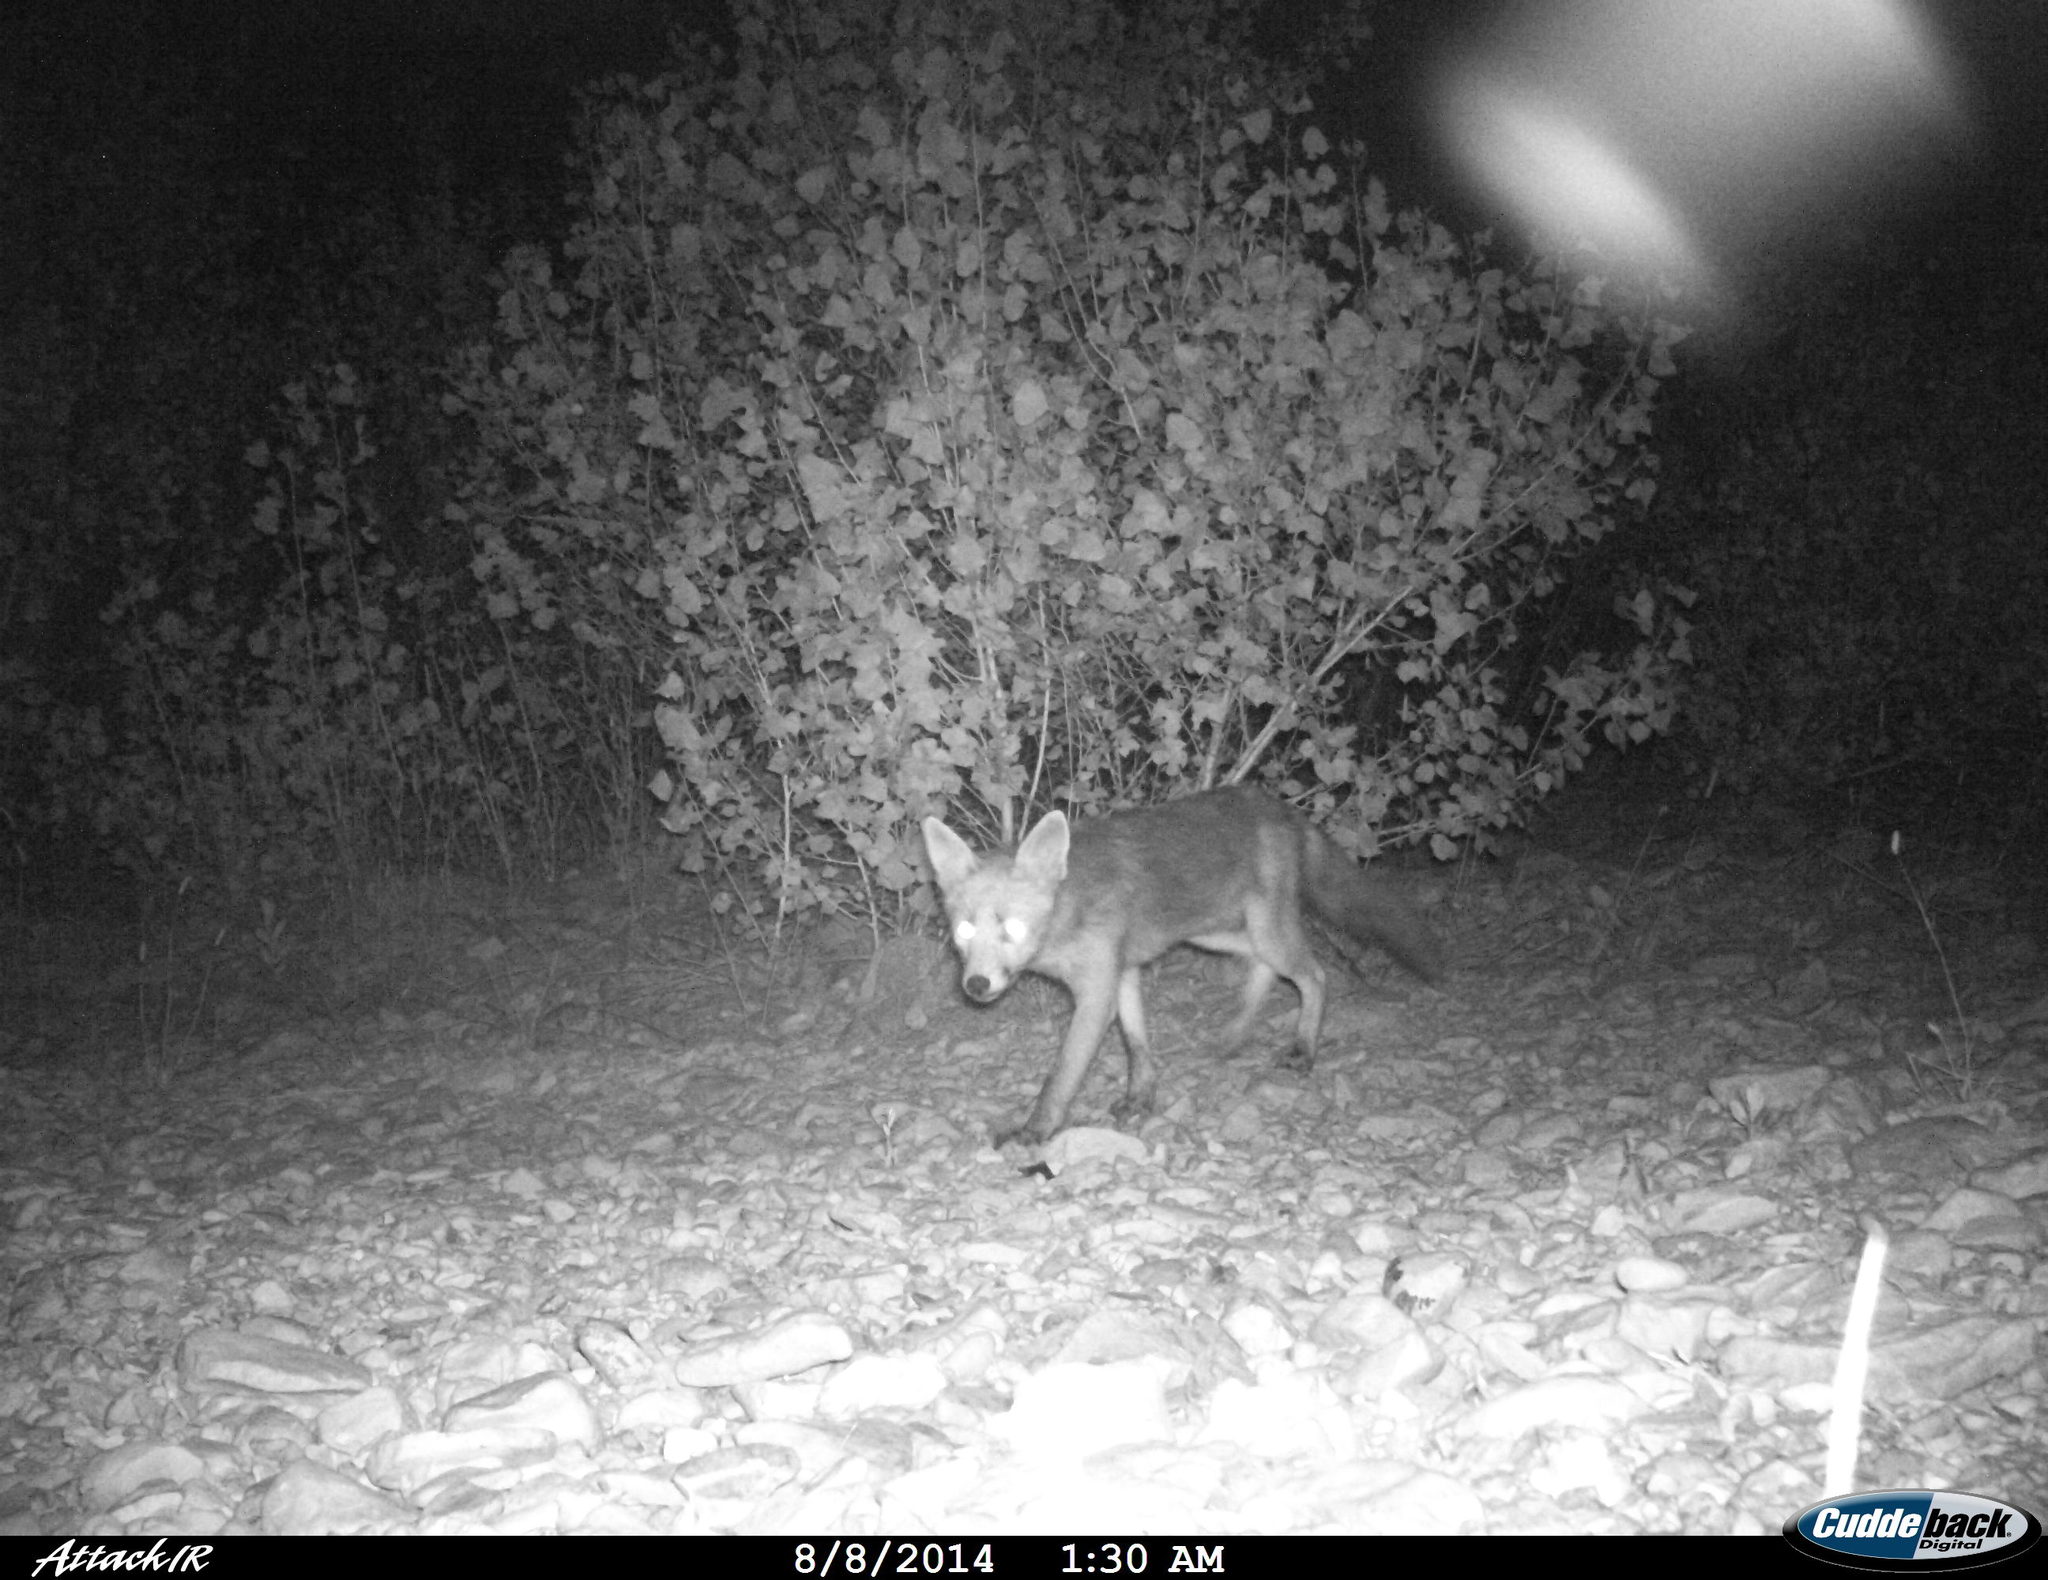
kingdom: Animalia
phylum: Chordata
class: Mammalia
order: Carnivora
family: Canidae
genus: Vulpes
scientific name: Vulpes vulpes
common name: Red fox
